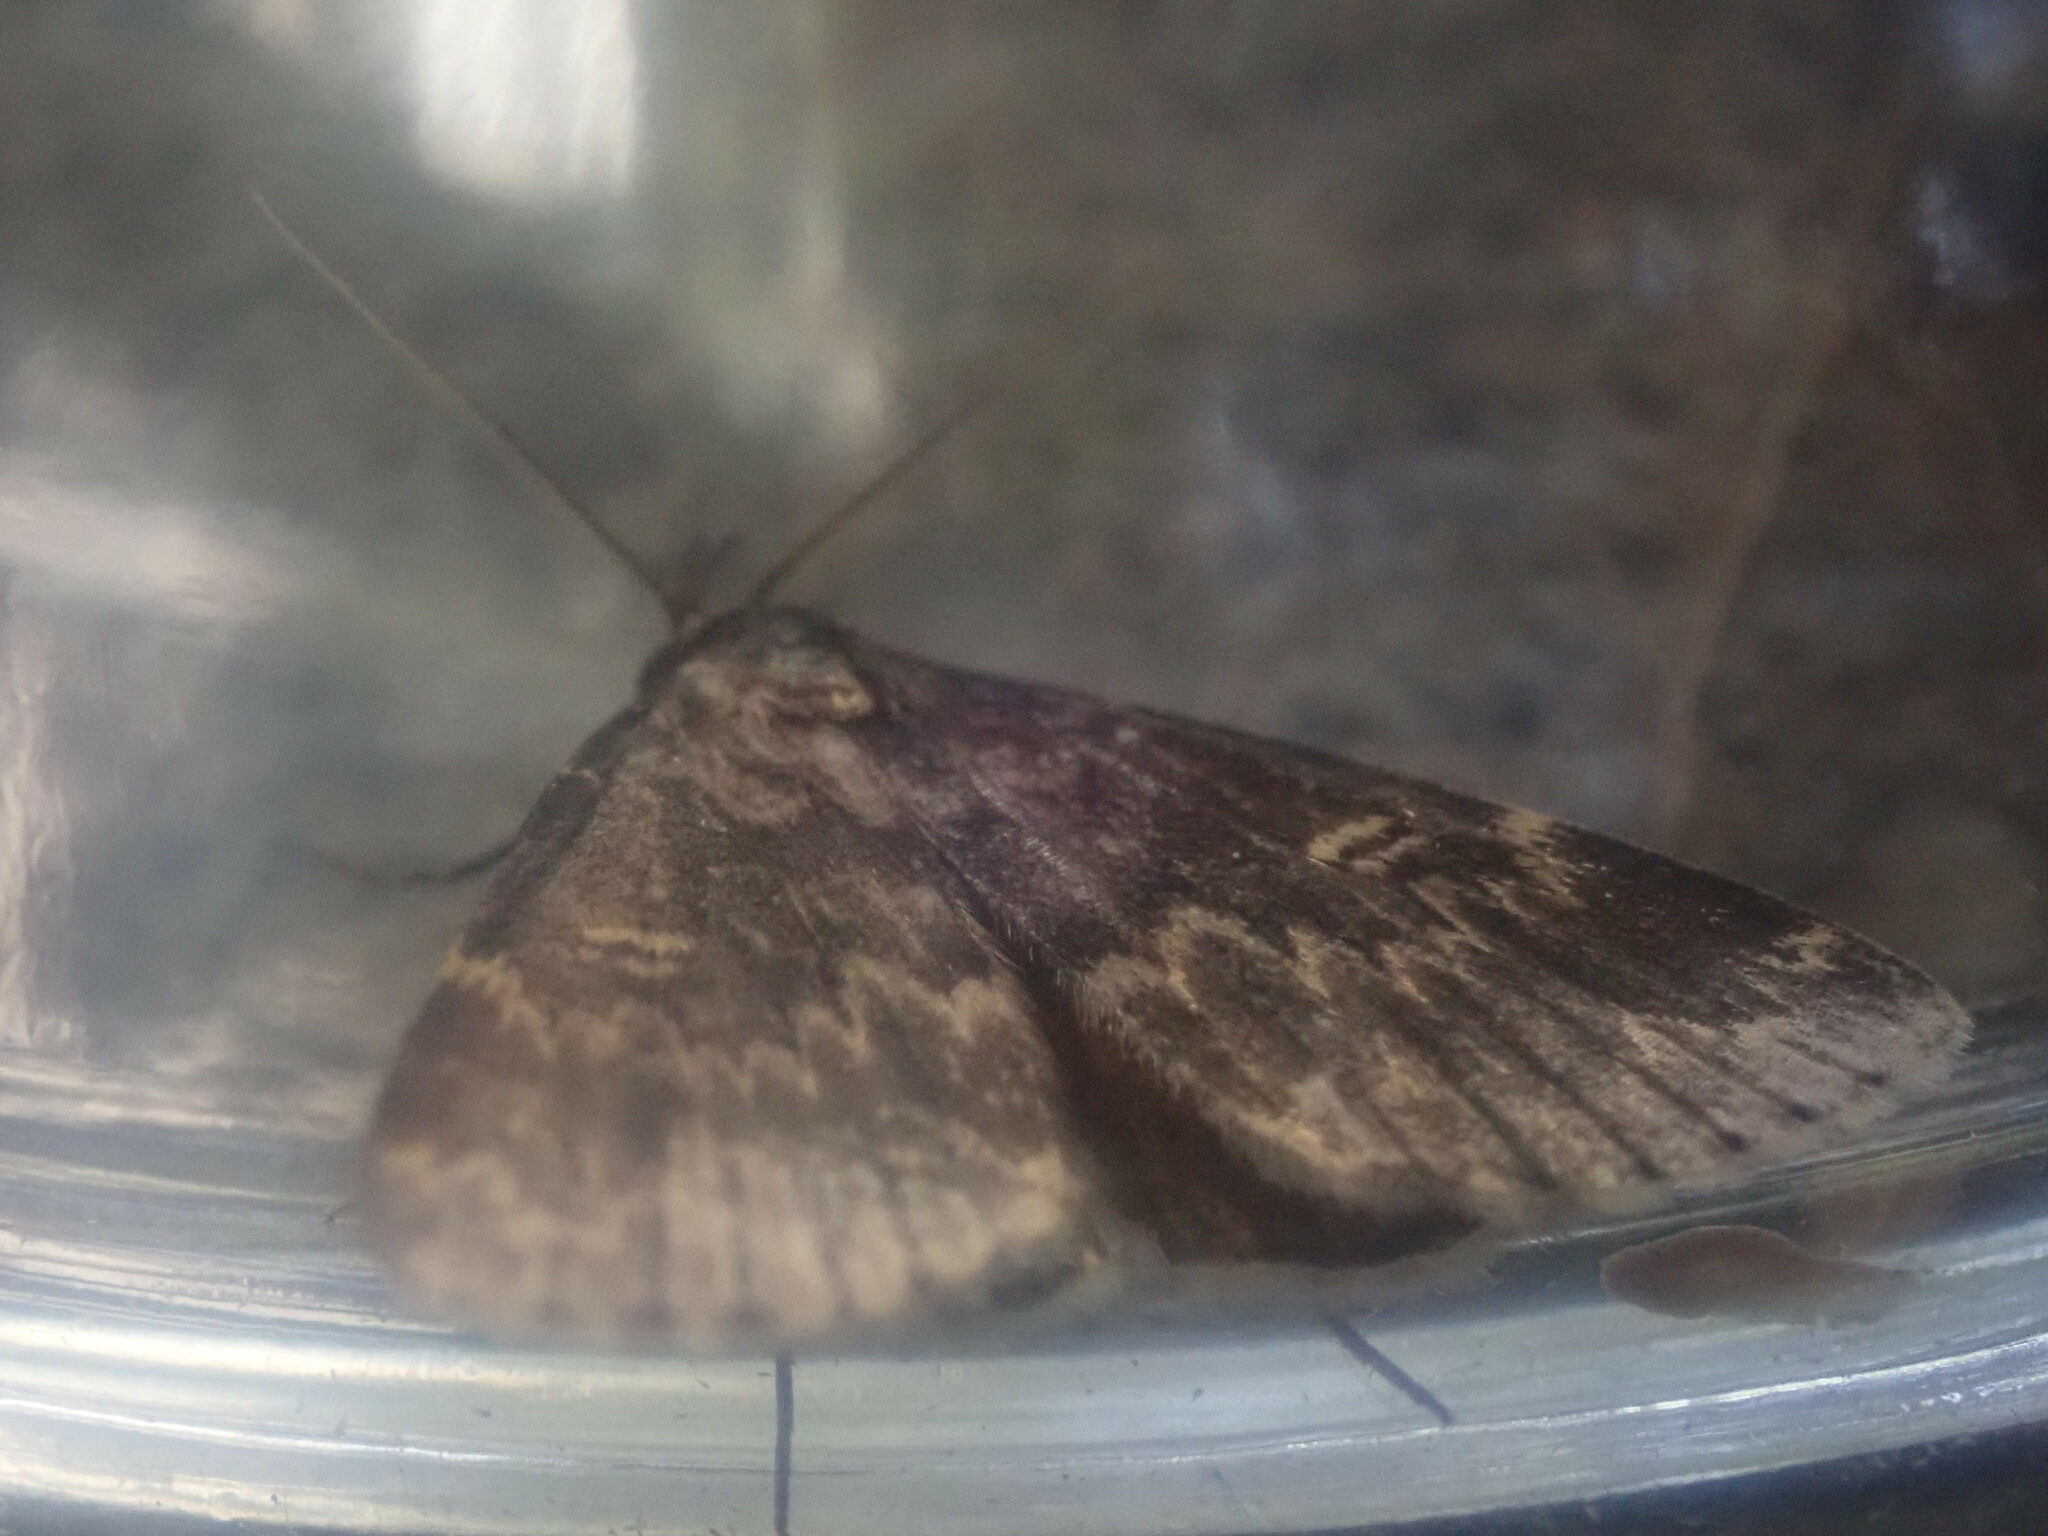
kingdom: Animalia
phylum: Arthropoda
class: Insecta
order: Lepidoptera
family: Erebidae
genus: Idia
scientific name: Idia lubricalis
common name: Twin-striped tabby
